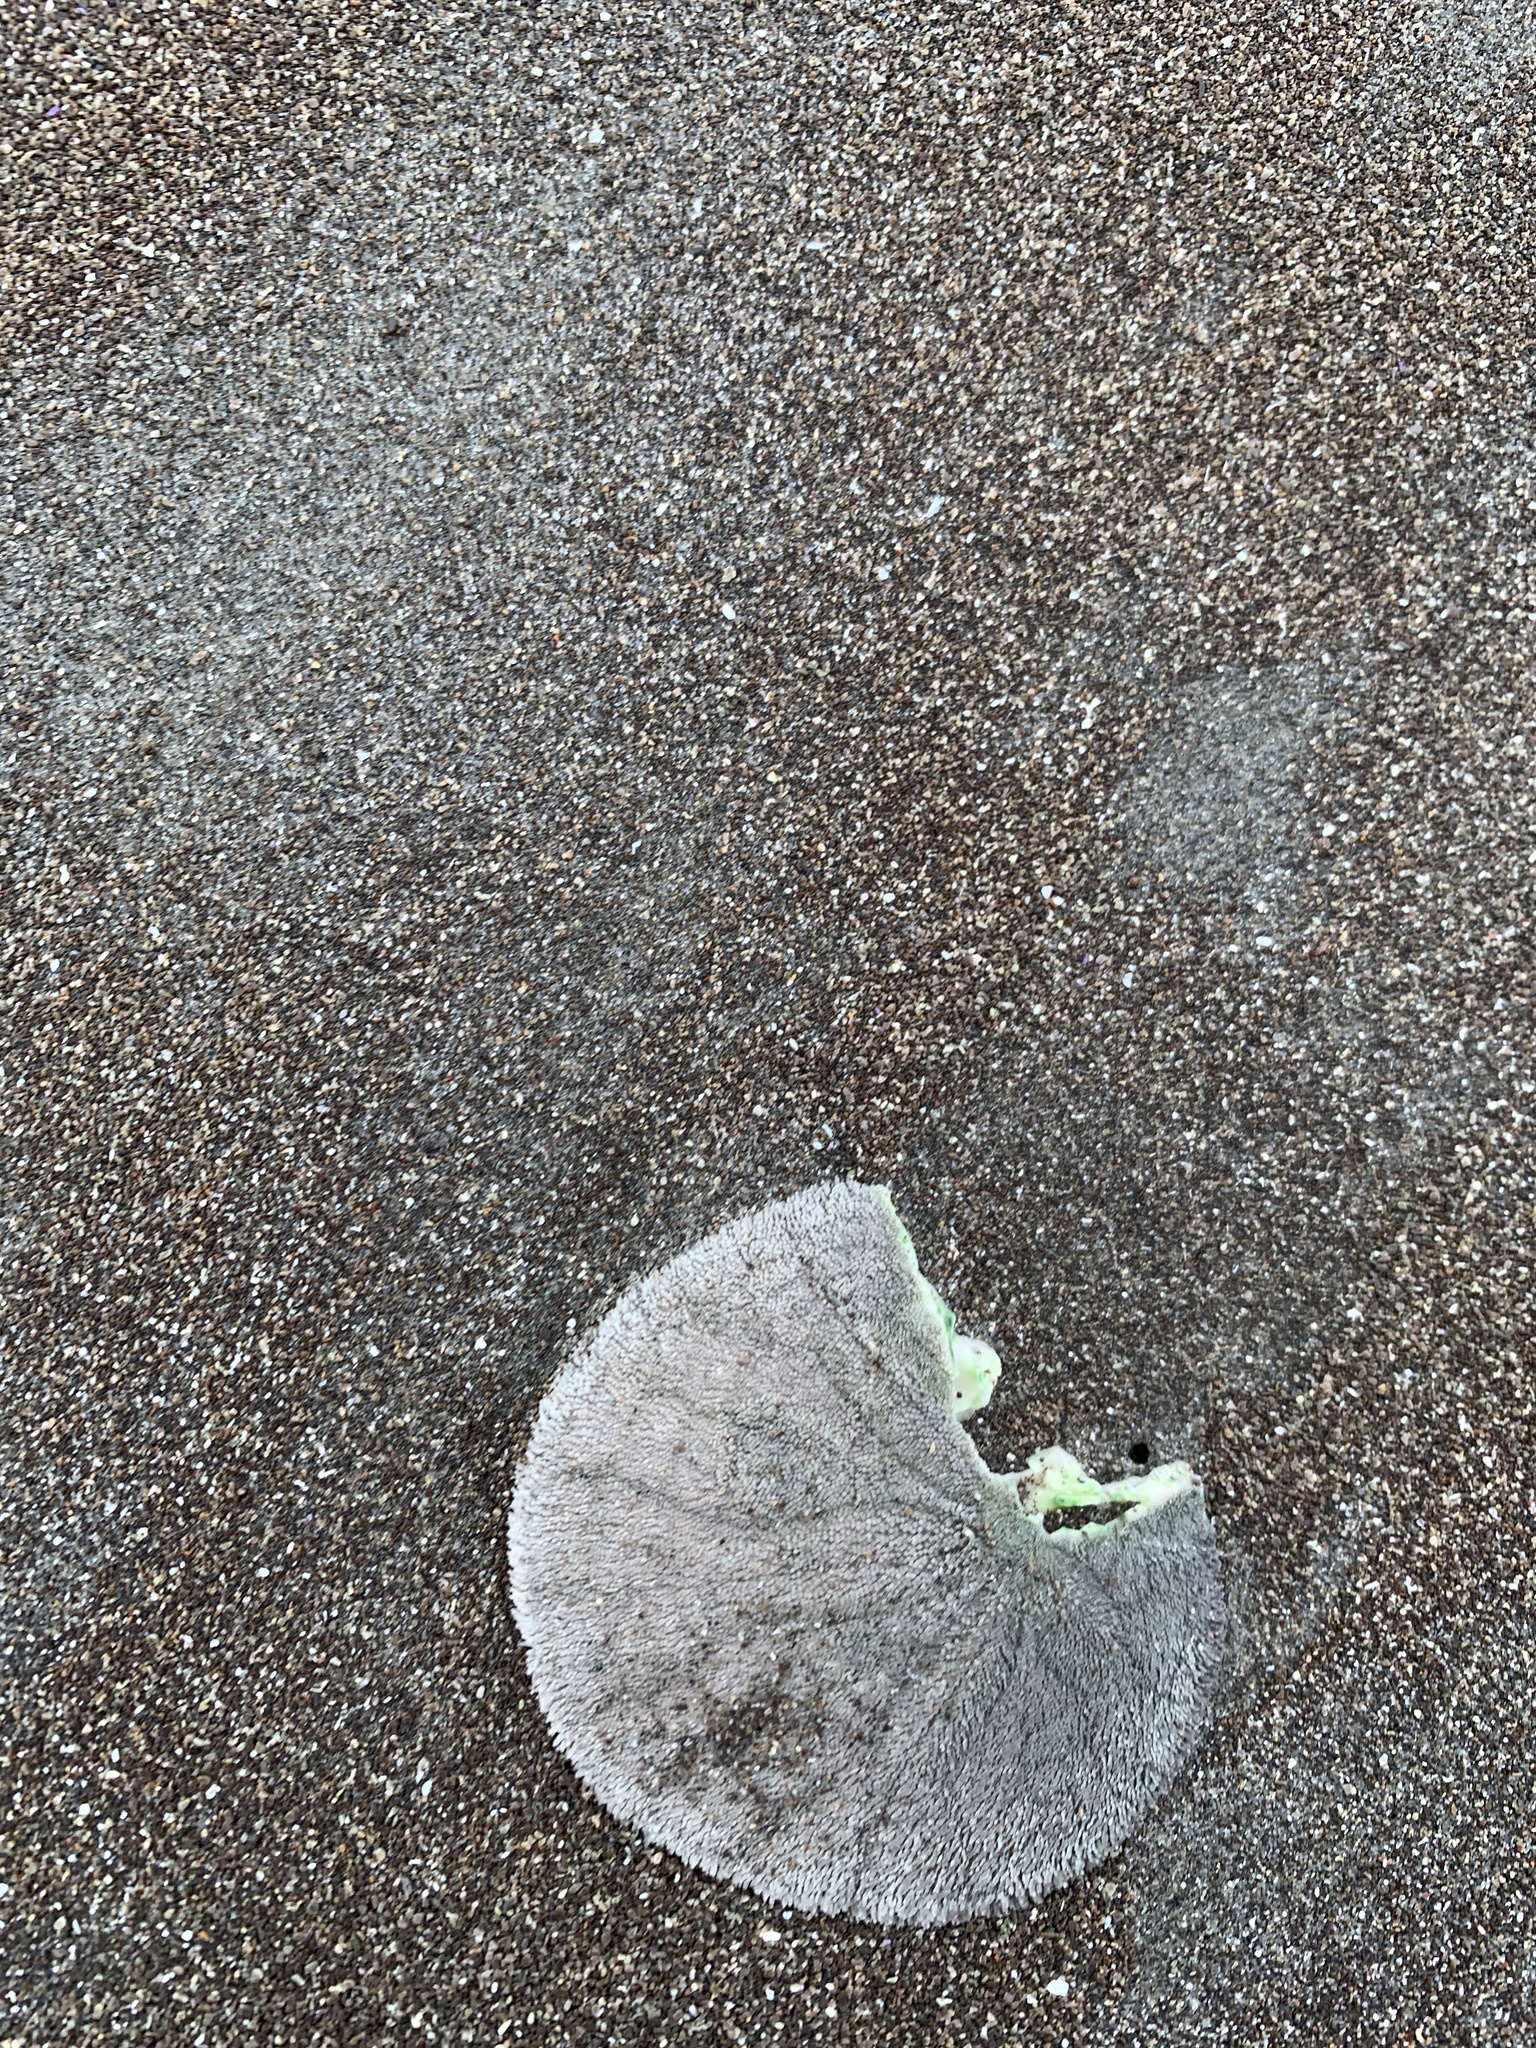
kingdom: Animalia
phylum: Echinodermata
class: Echinoidea
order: Echinolampadacea
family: Dendrasteridae
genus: Dendraster
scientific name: Dendraster excentricus
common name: Eccentric sand dollar sea urchin
